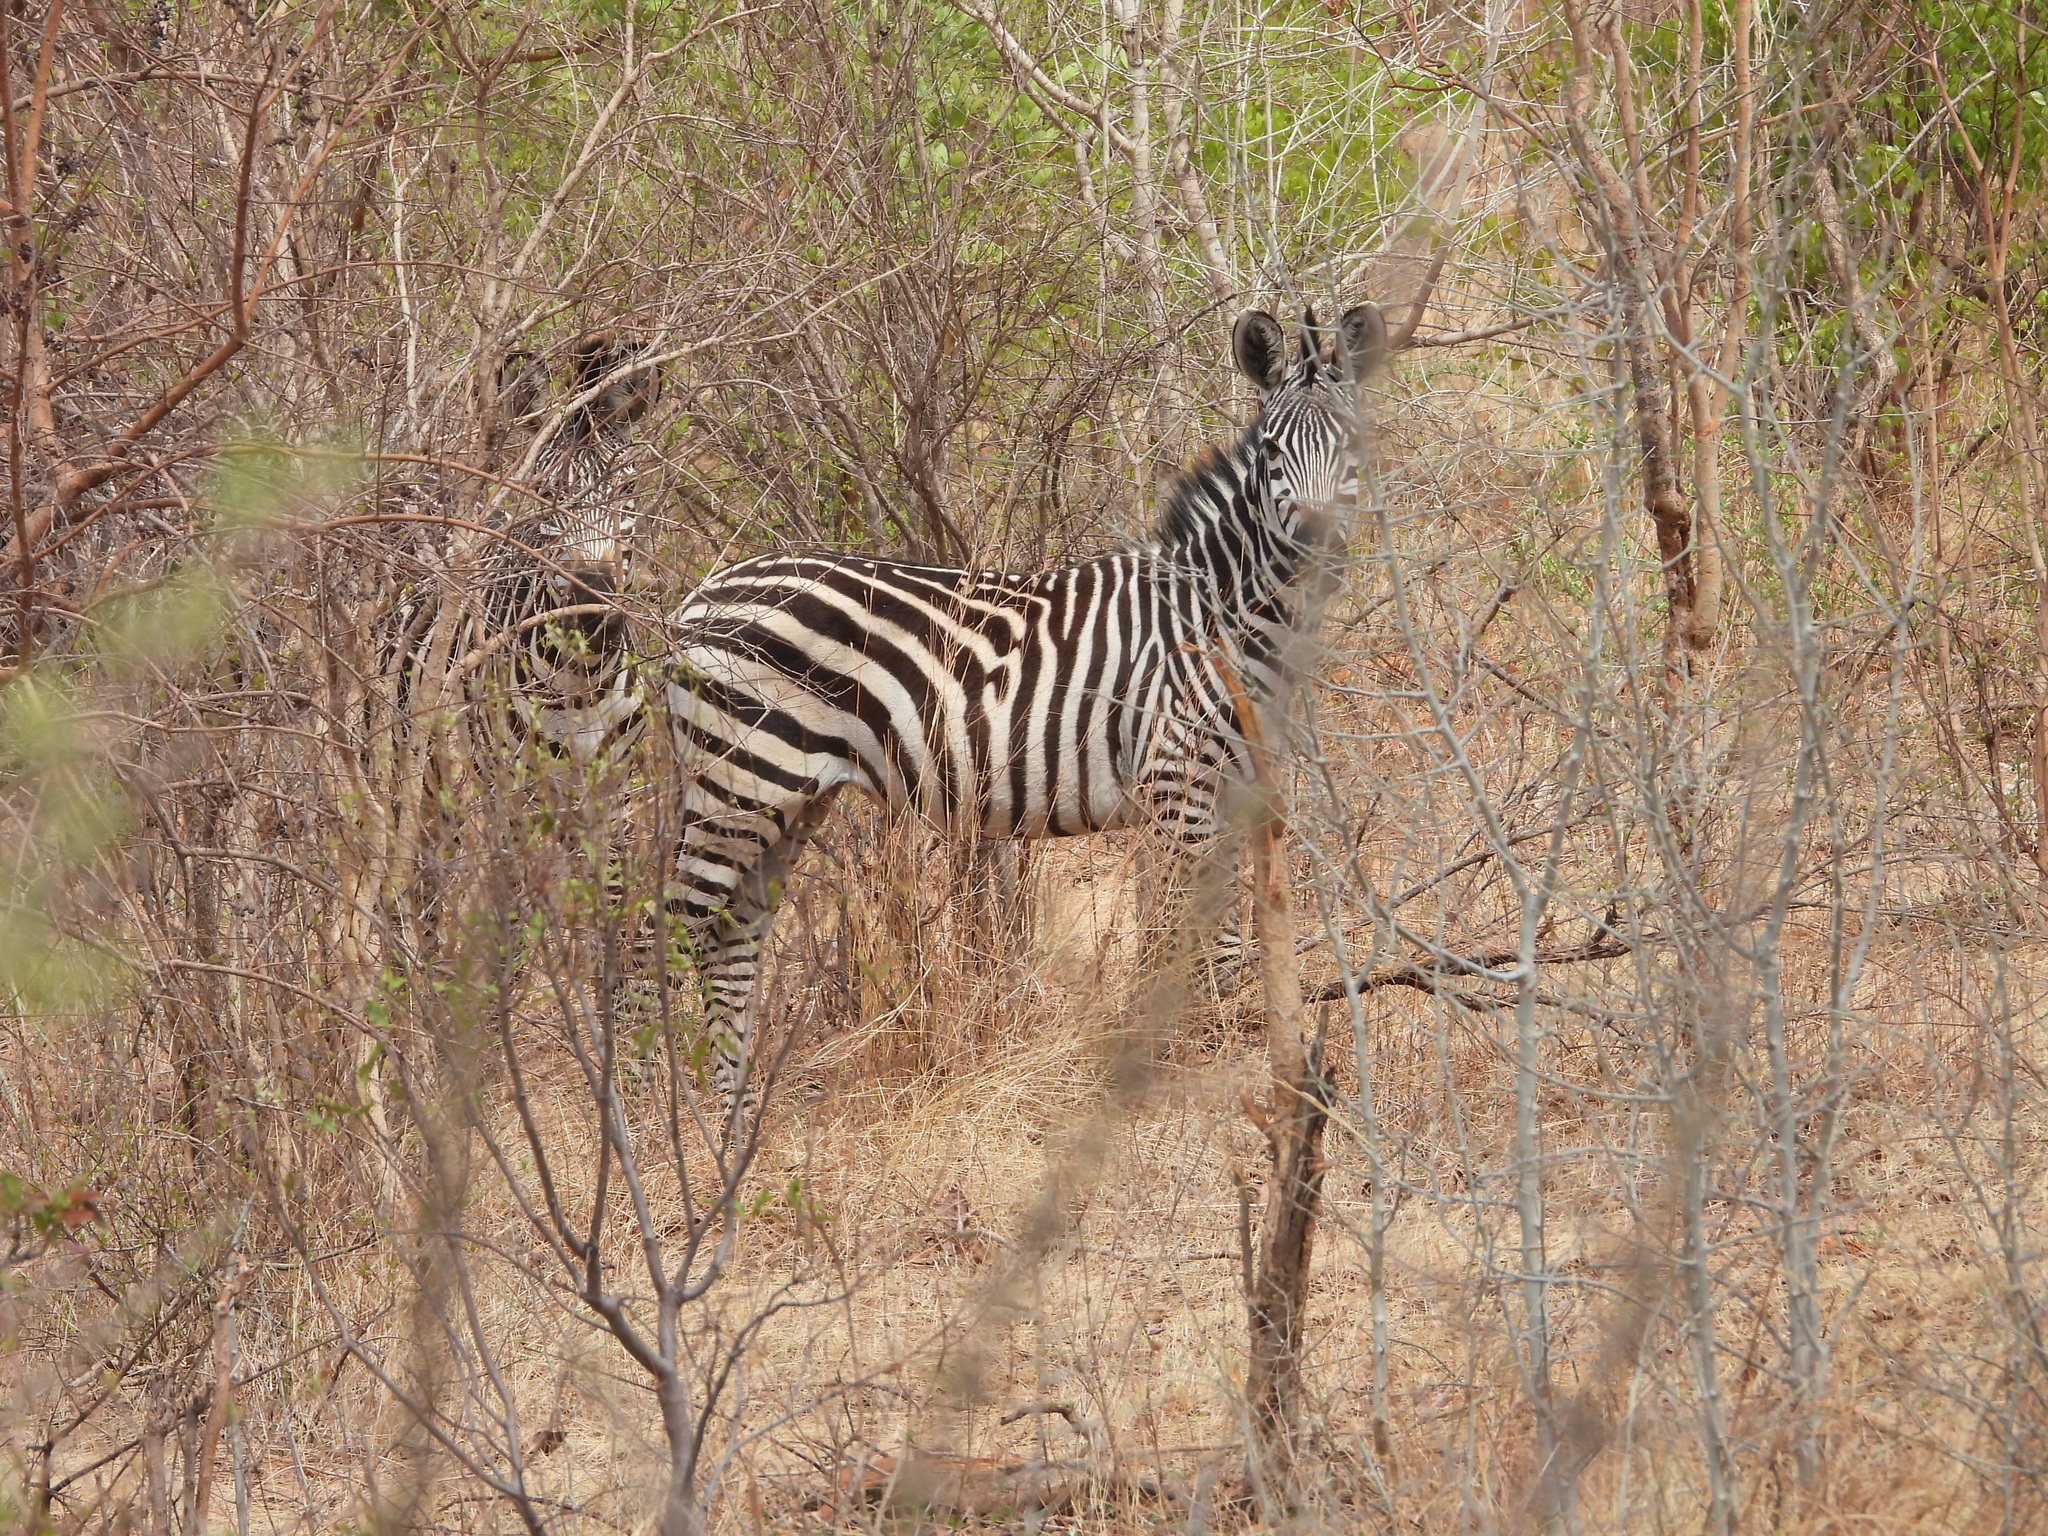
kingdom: Animalia
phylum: Chordata
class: Mammalia
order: Perissodactyla
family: Equidae
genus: Equus
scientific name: Equus quagga
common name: Plains zebra
